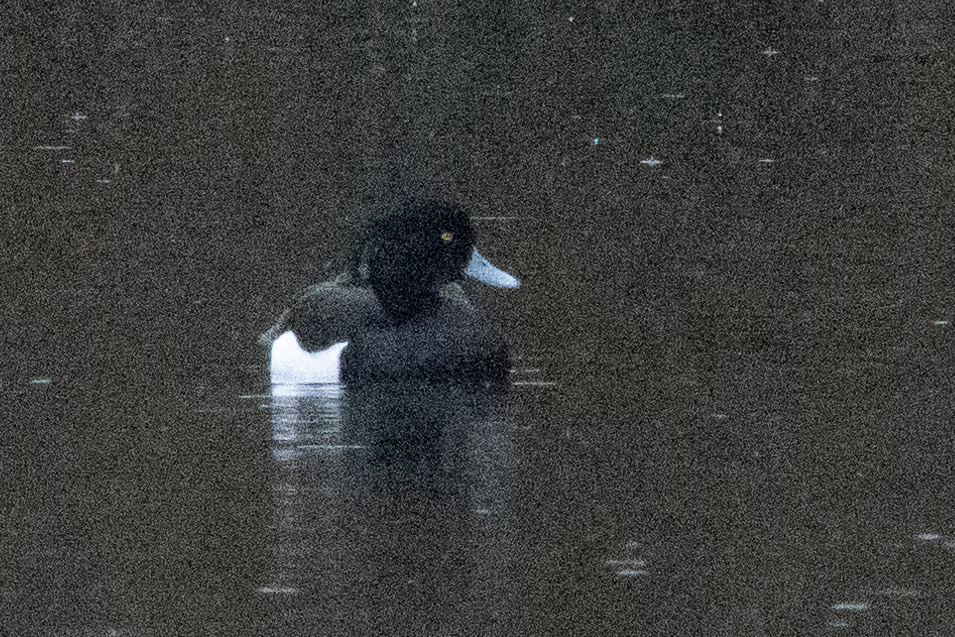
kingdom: Animalia
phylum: Chordata
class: Aves
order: Anseriformes
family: Anatidae
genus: Aythya
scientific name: Aythya fuligula
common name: Tufted duck
